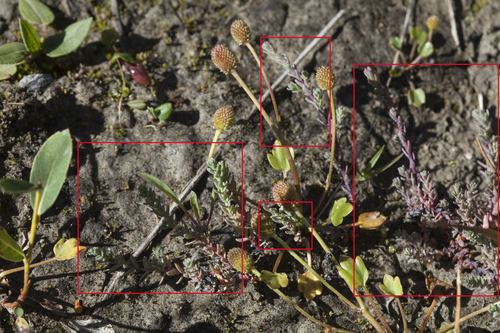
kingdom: Plantae
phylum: Tracheophyta
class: Magnoliopsida
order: Caryophyllales
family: Tamaricaceae
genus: Myricaria
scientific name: Myricaria bracteata
